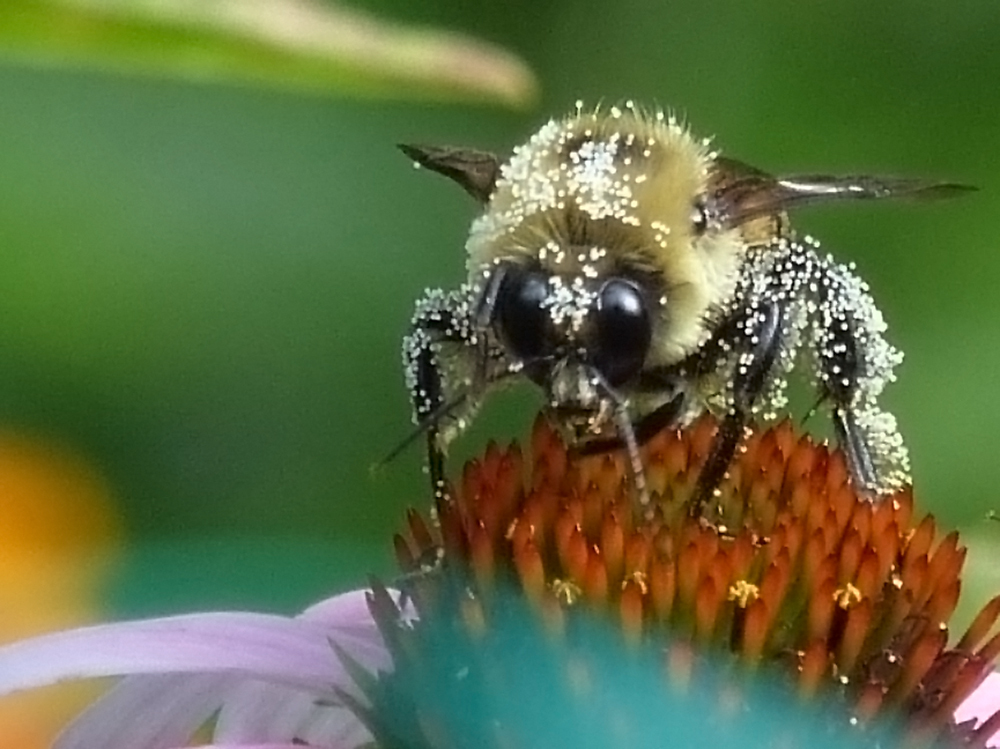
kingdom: Animalia
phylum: Arthropoda
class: Insecta
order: Hymenoptera
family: Apidae
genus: Bombus
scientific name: Bombus griseocollis
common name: Brown-belted bumble bee
